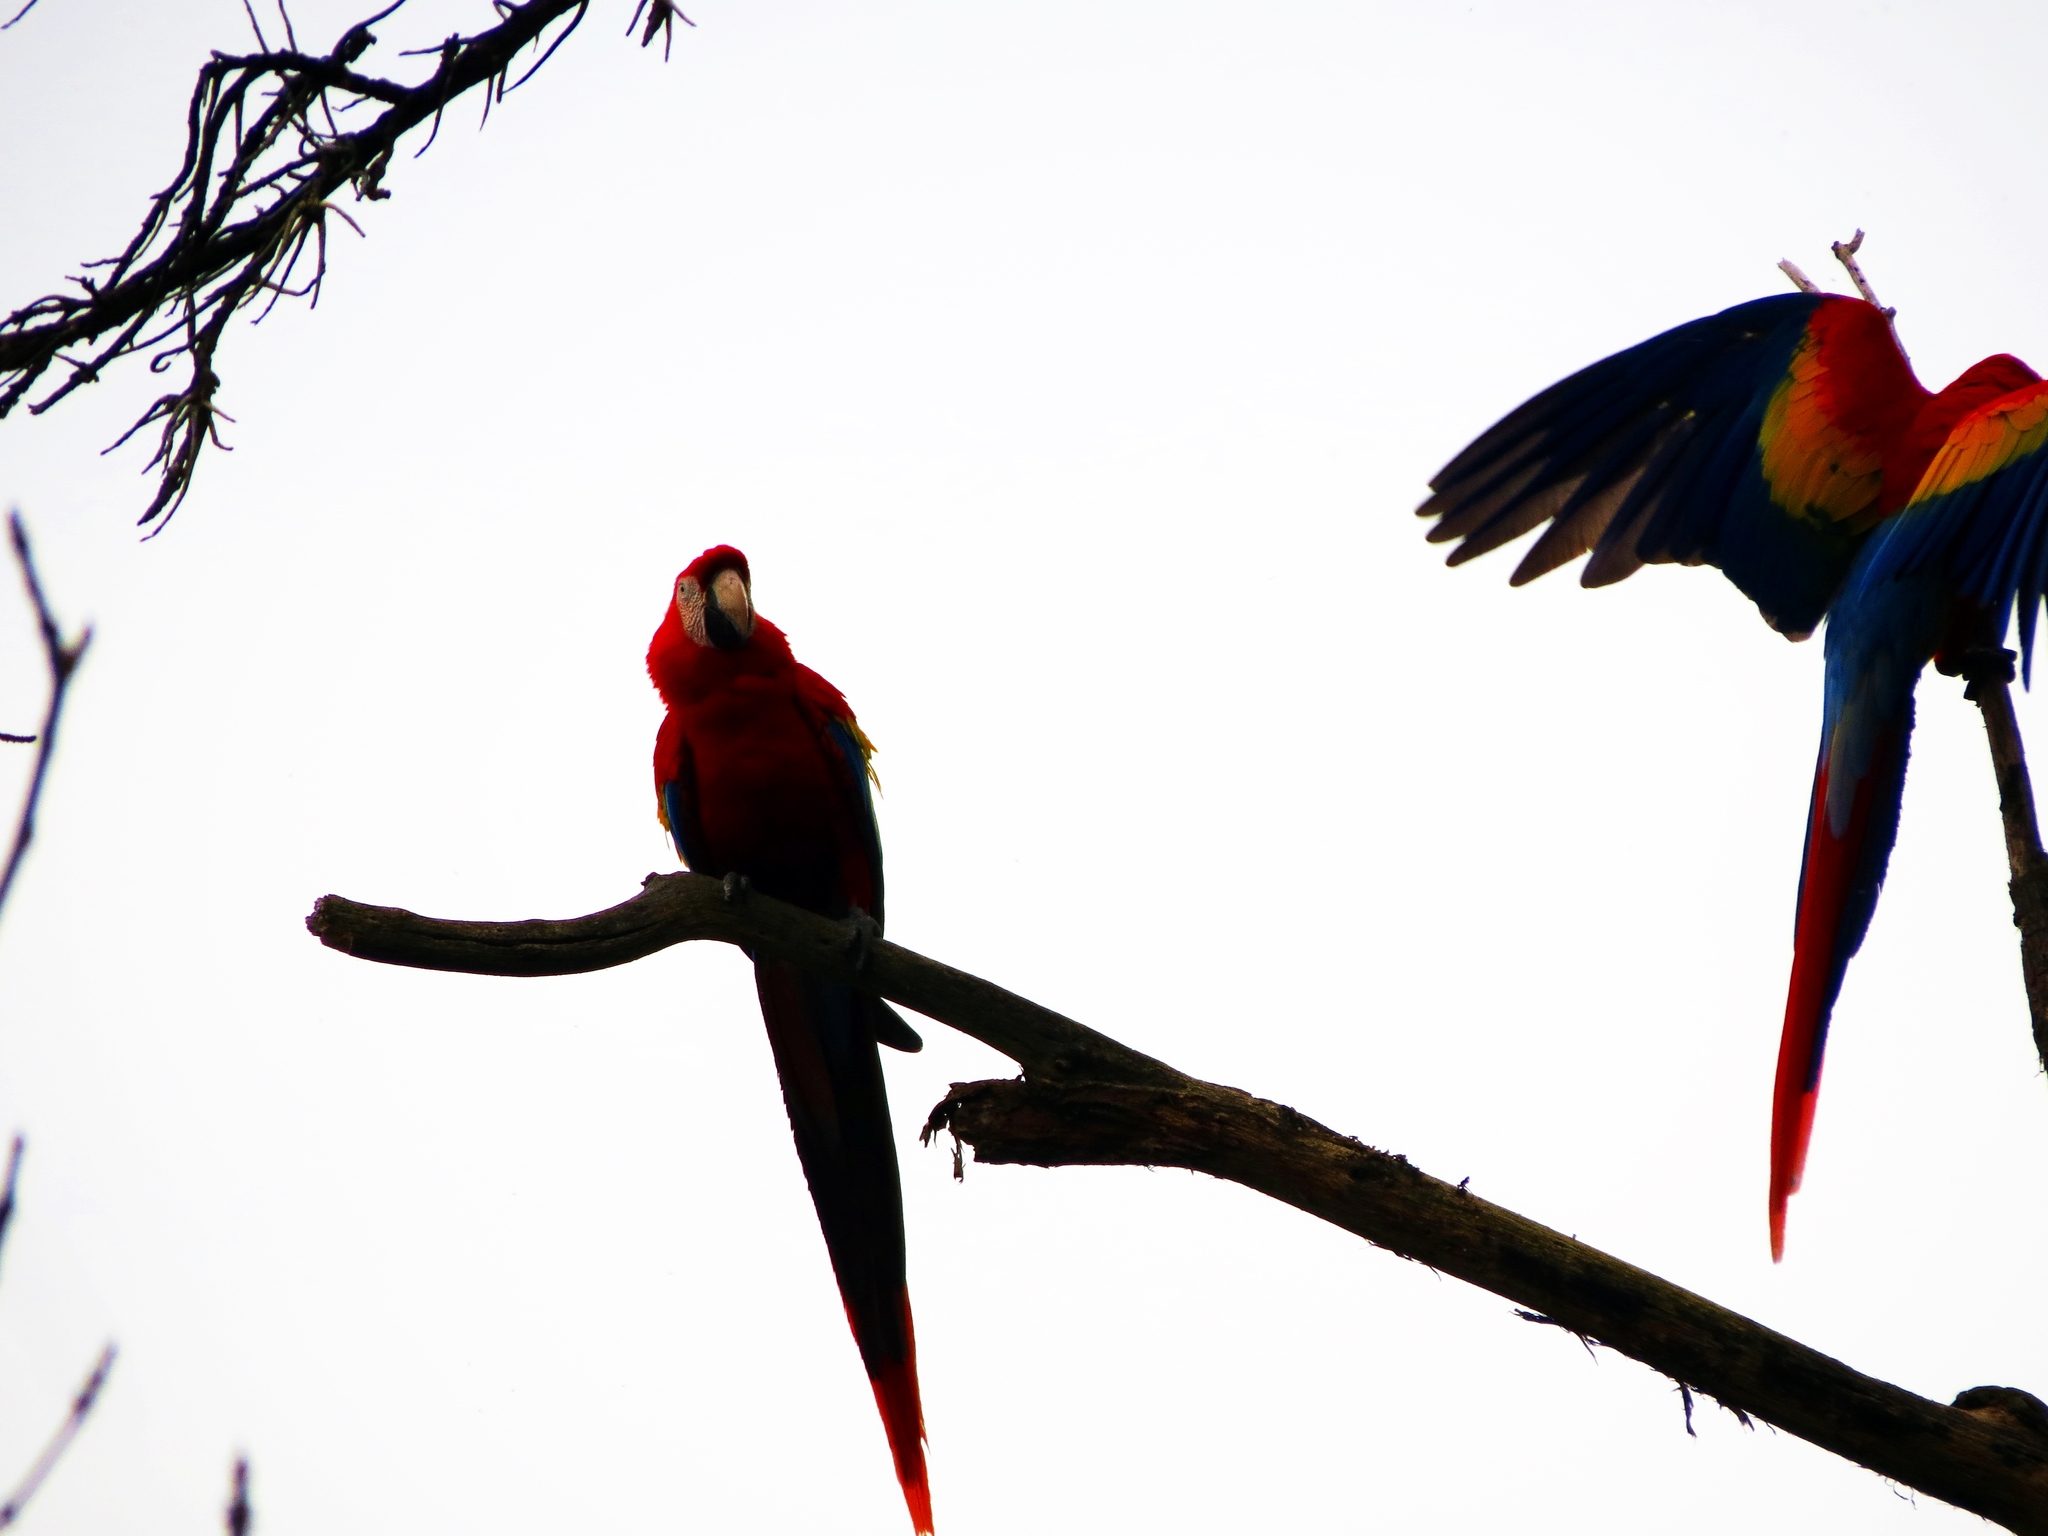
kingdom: Animalia
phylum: Chordata
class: Aves
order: Psittaciformes
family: Psittacidae
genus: Ara
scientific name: Ara macao
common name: Scarlet macaw
